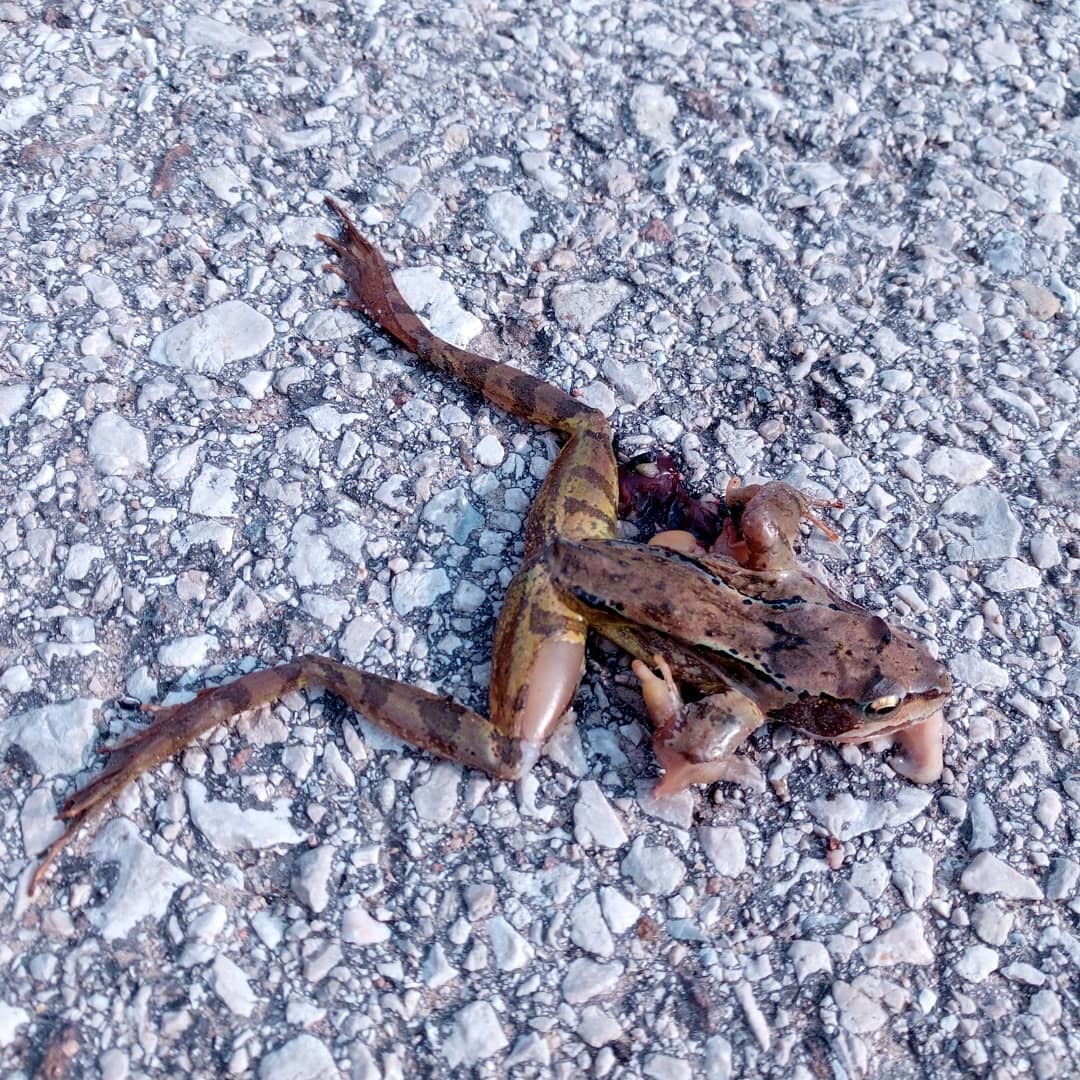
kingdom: Animalia
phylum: Chordata
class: Amphibia
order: Anura
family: Ranidae
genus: Rana
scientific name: Rana temporaria
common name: Common frog
